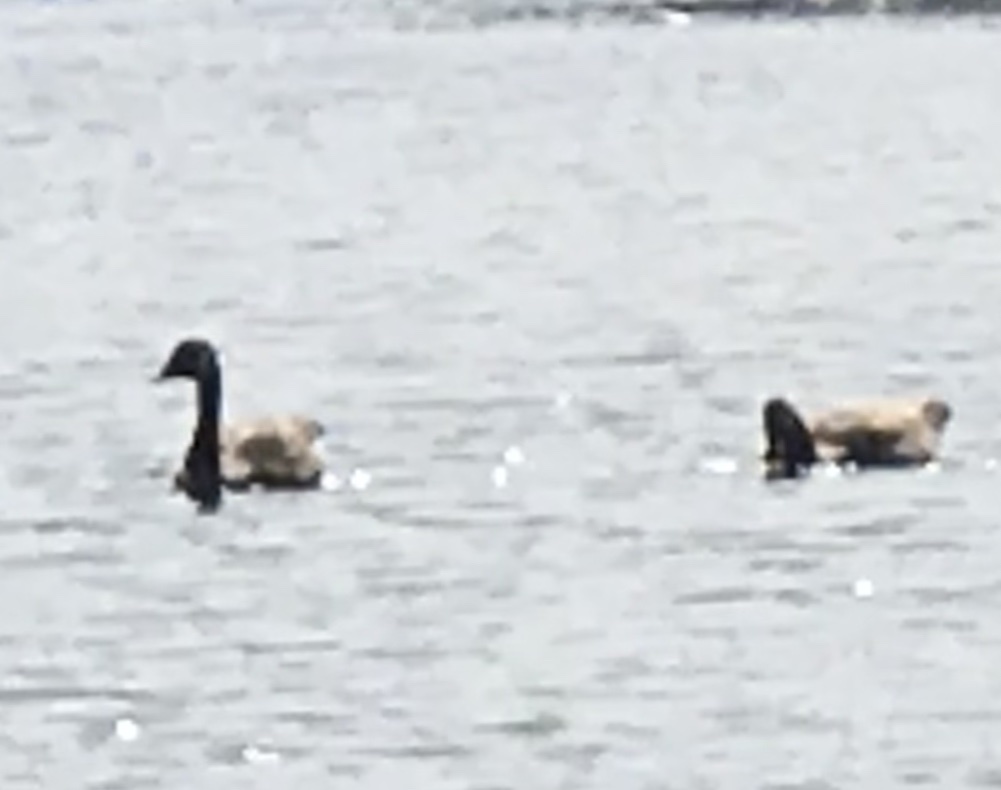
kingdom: Animalia
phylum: Chordata
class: Aves
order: Anseriformes
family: Anatidae
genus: Branta
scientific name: Branta canadensis
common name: Canada goose
